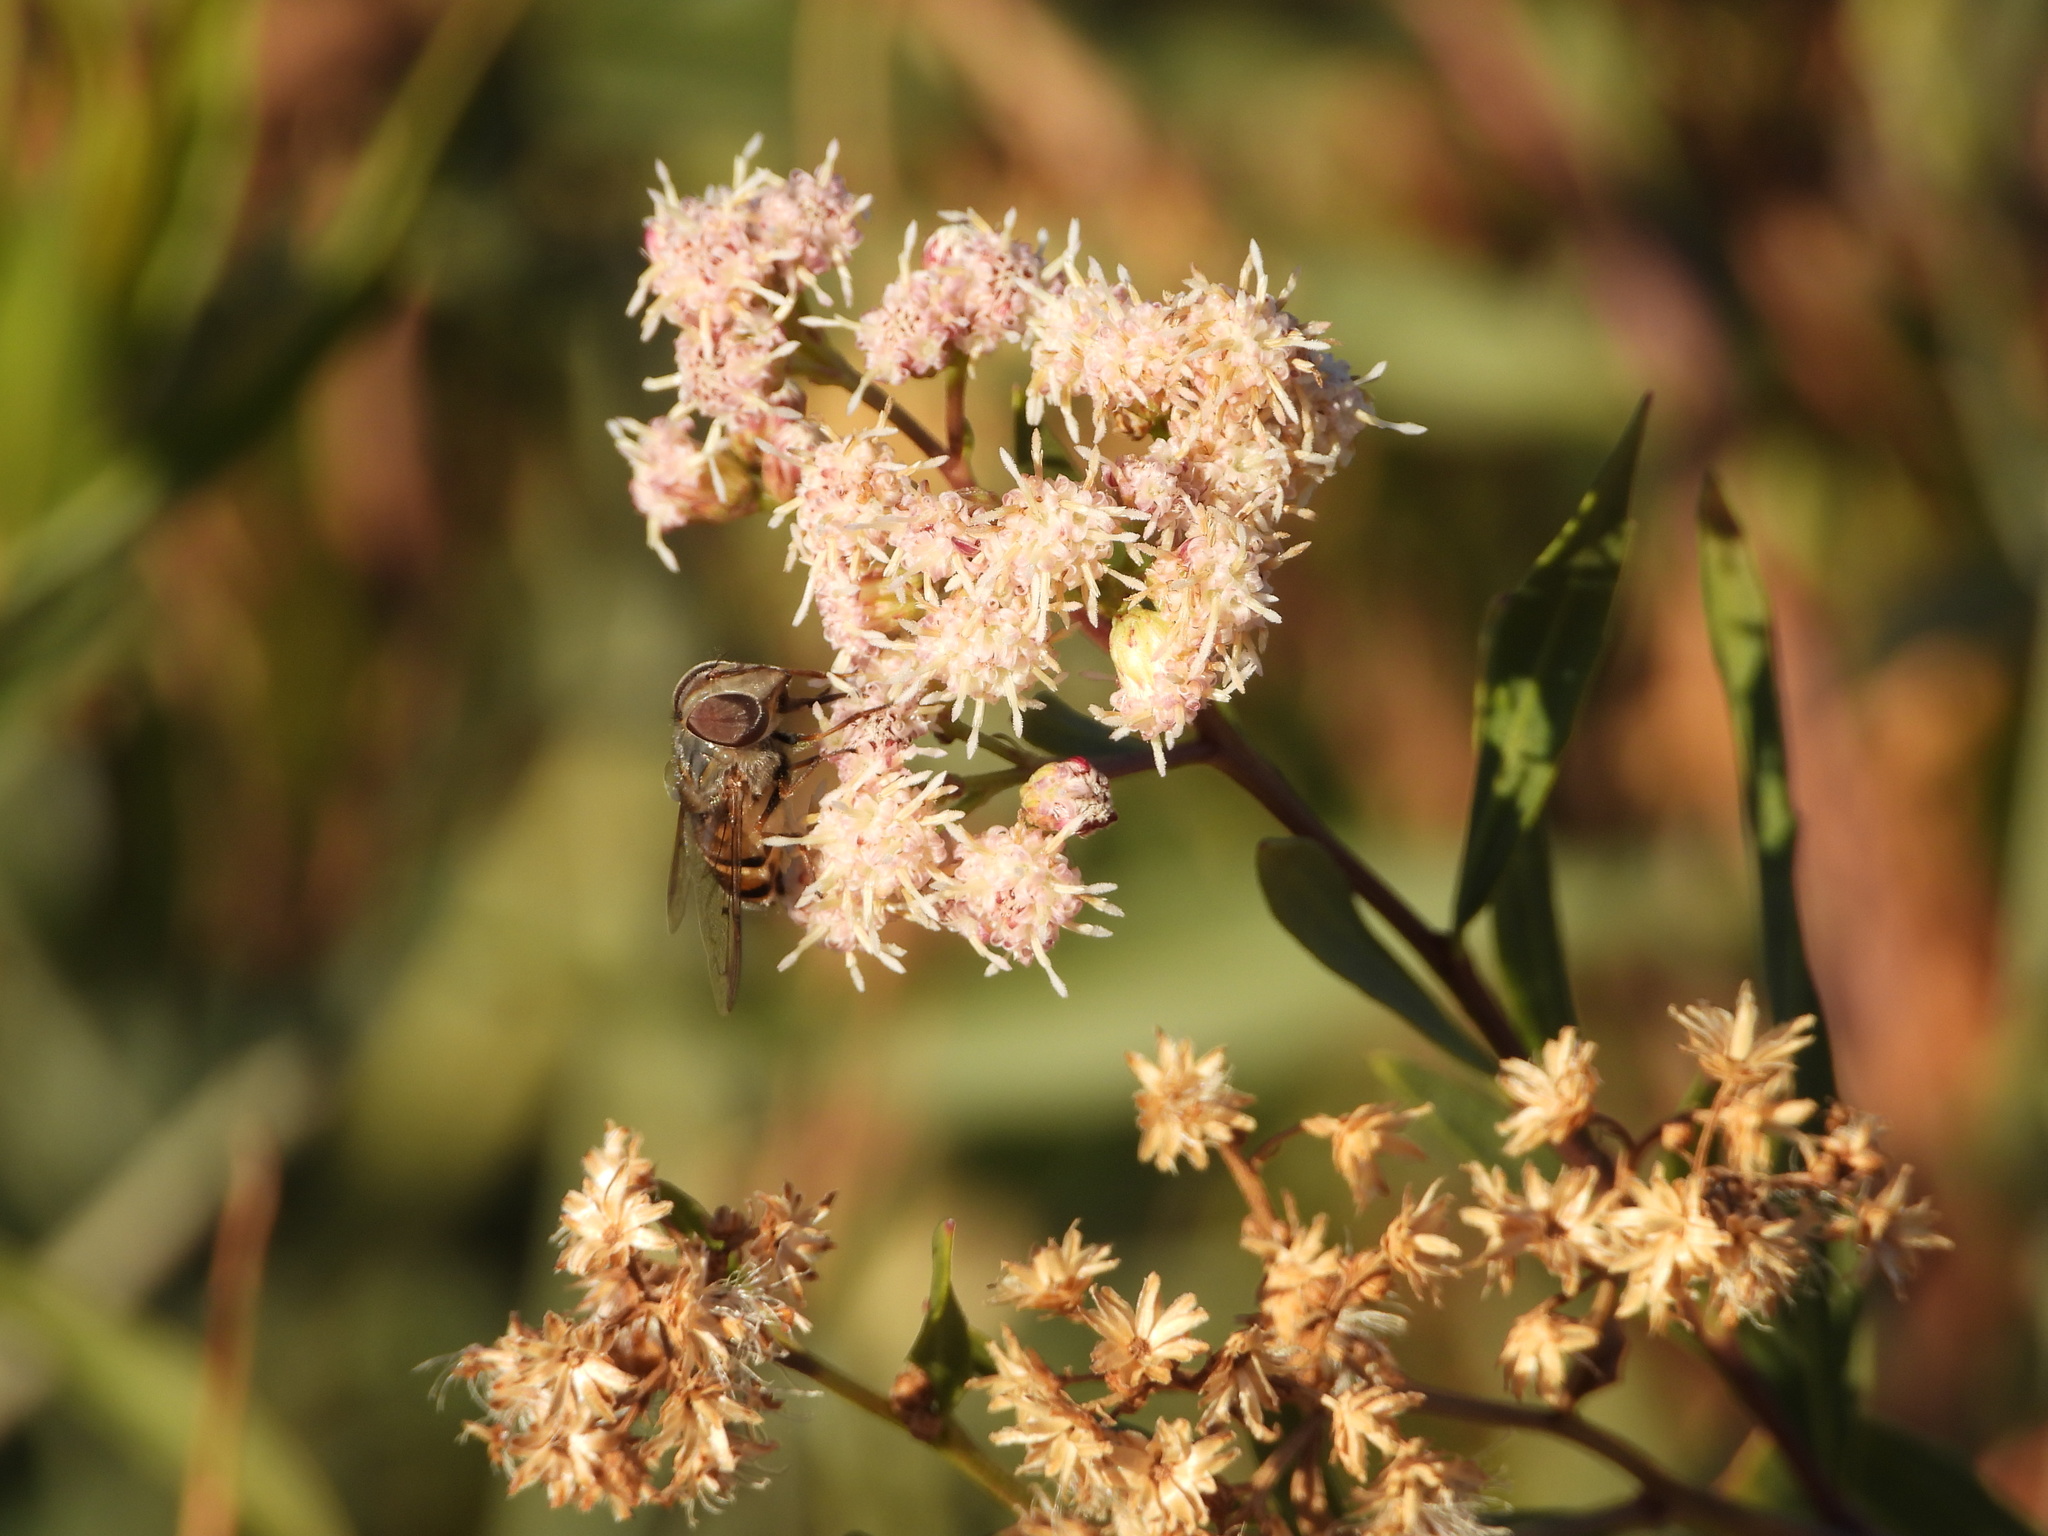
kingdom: Animalia
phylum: Arthropoda
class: Insecta
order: Diptera
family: Syrphidae
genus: Copestylum
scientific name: Copestylum isabellina
